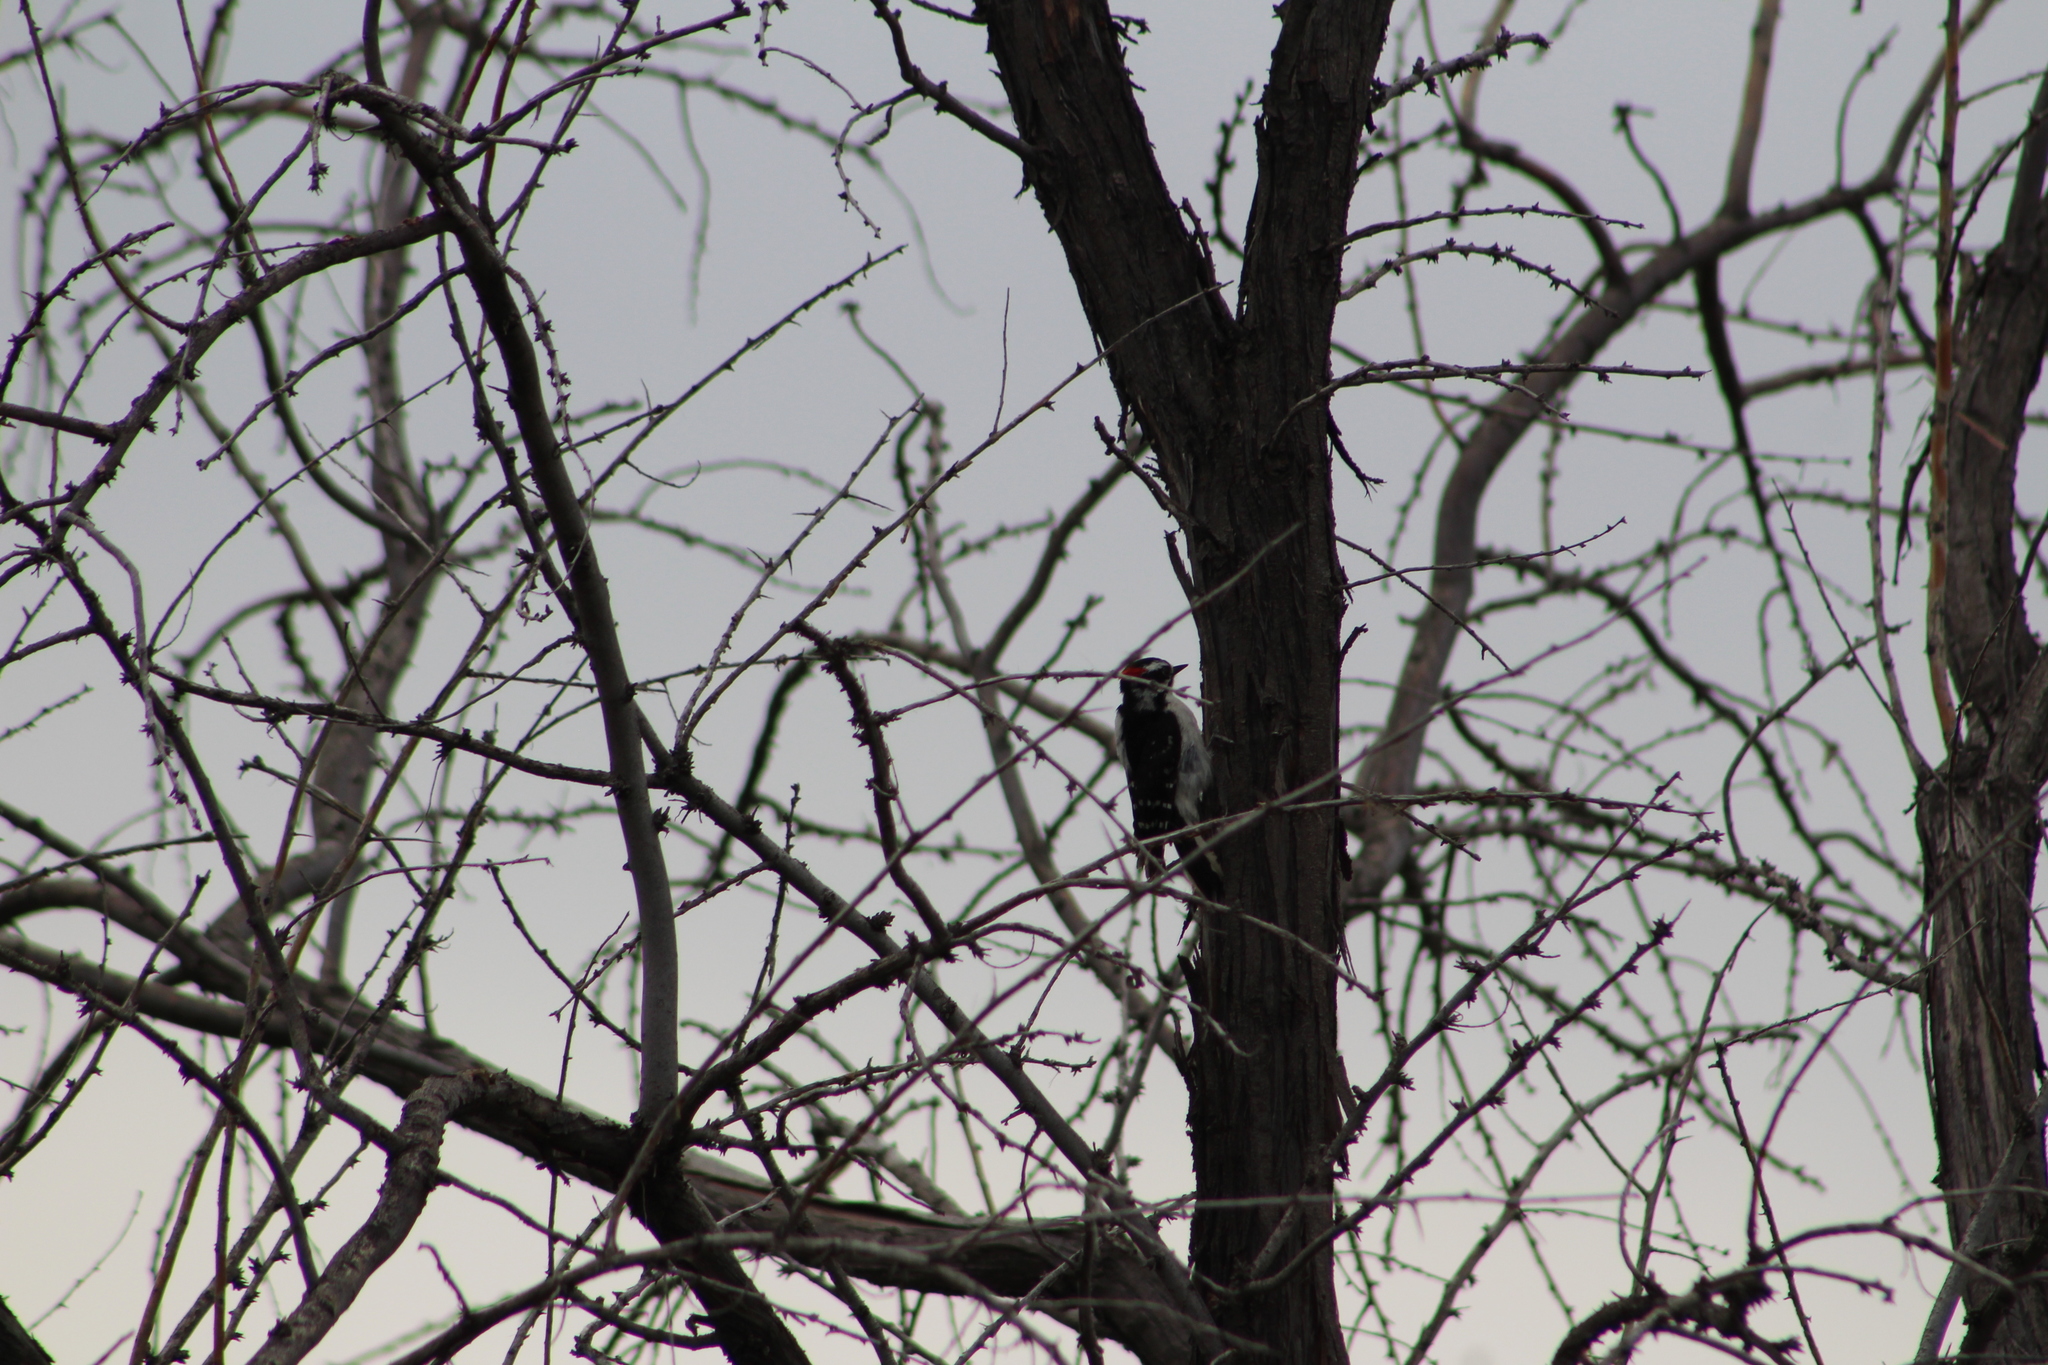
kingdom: Animalia
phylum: Chordata
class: Aves
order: Piciformes
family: Picidae
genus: Dryobates
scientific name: Dryobates pubescens
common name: Downy woodpecker
